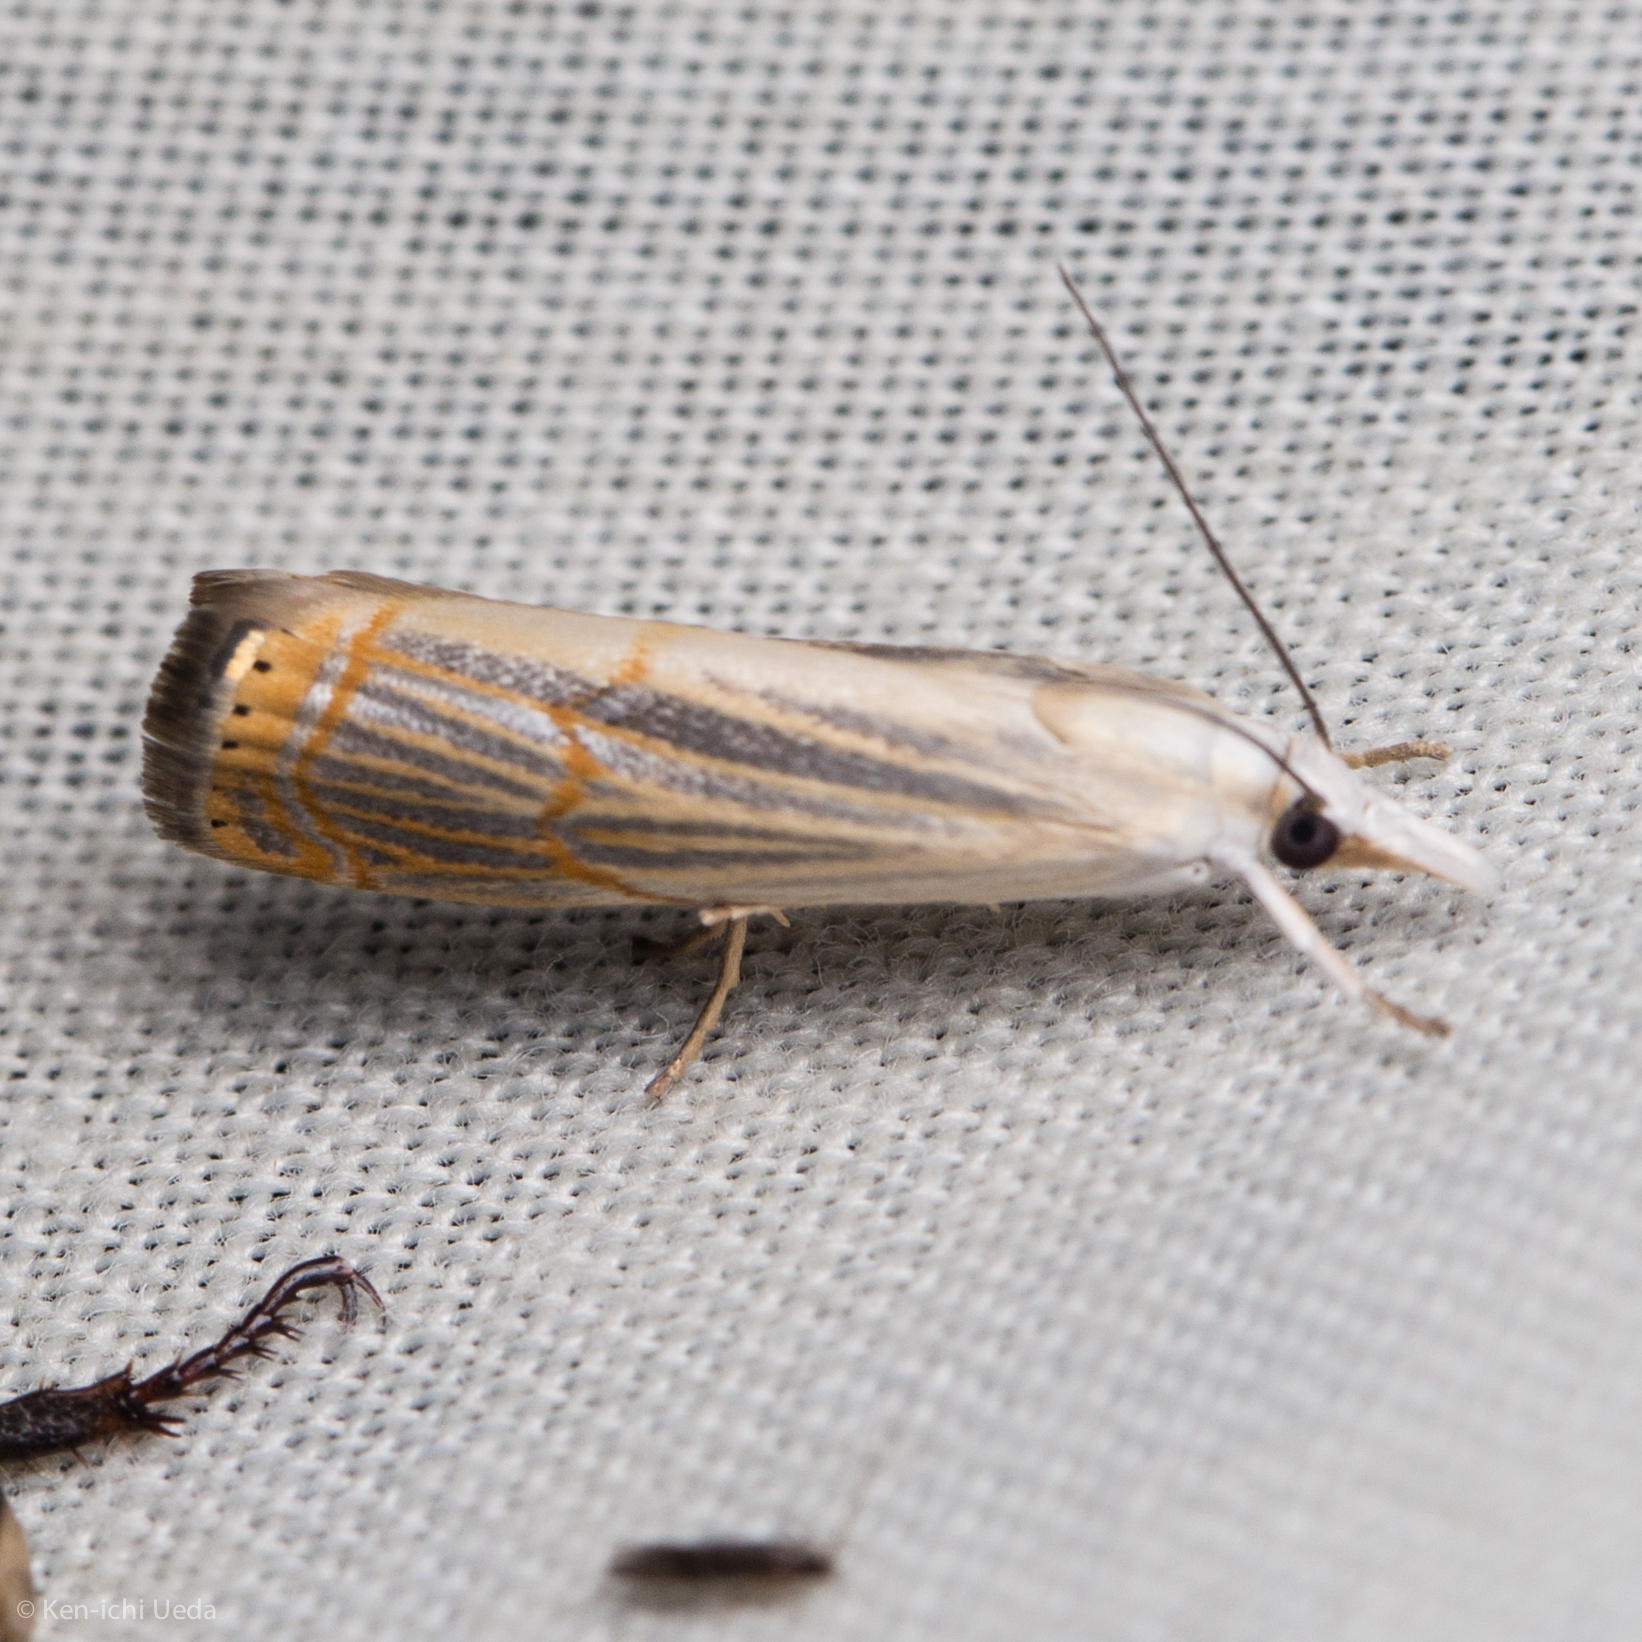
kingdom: Animalia
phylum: Arthropoda
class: Insecta
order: Lepidoptera
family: Crambidae
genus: Parapediasia
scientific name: Parapediasia decorellus
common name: Graceful grass-veneer
